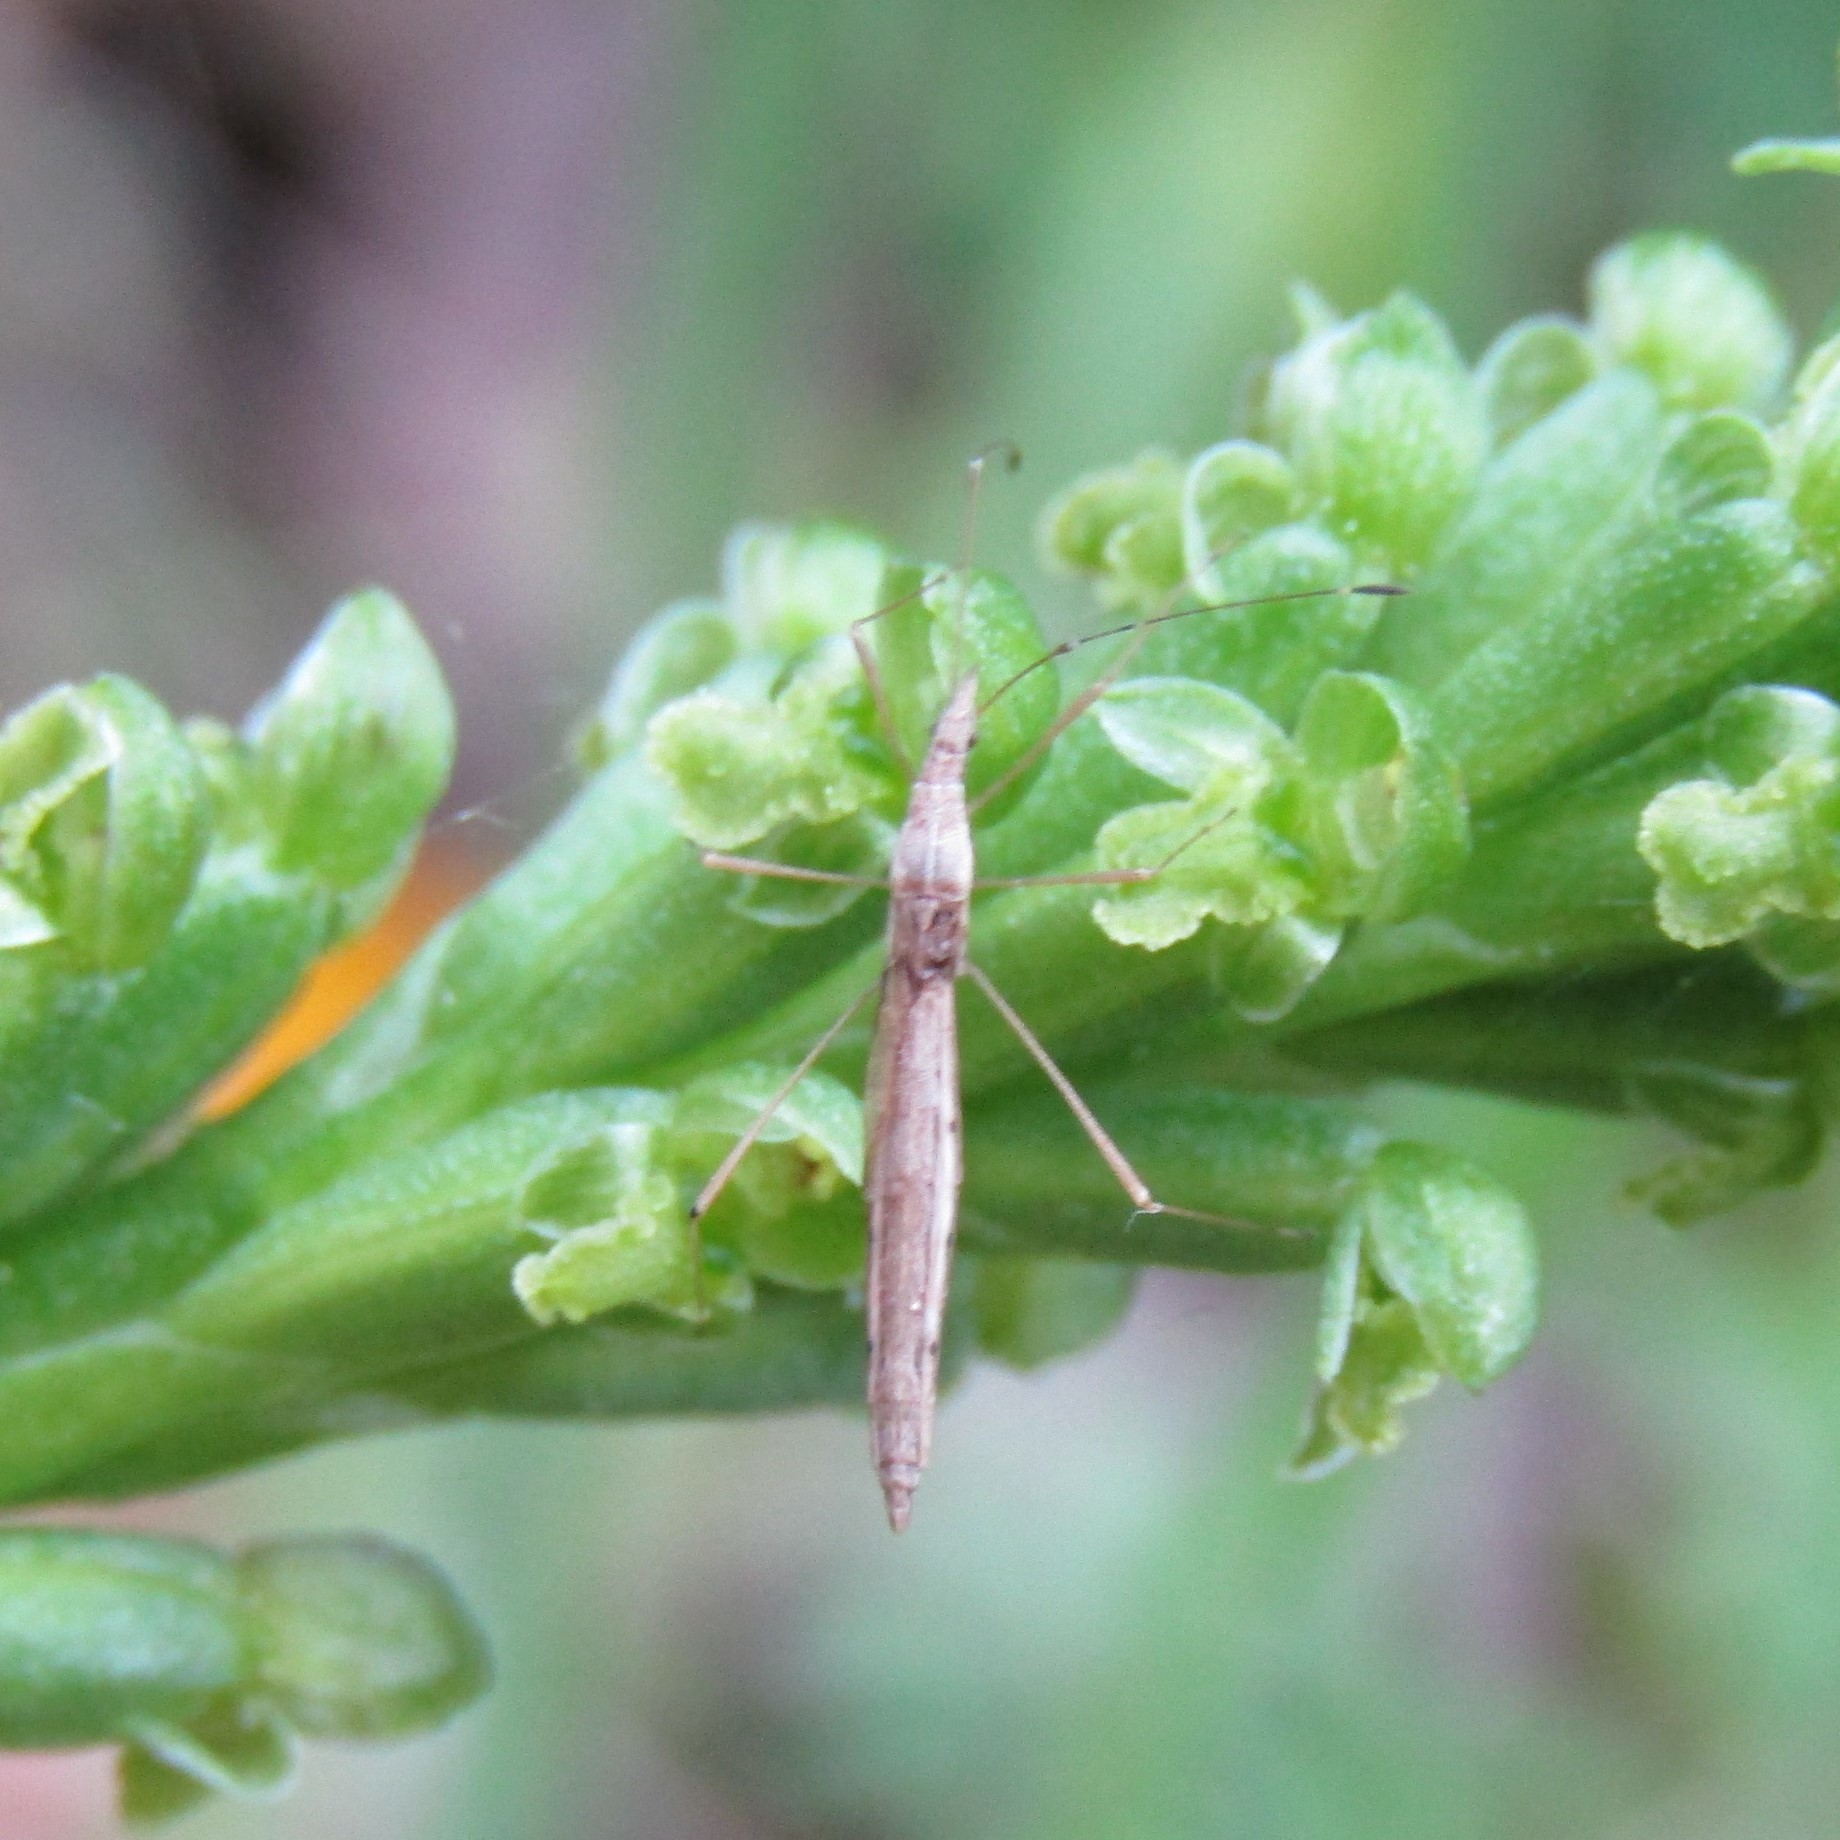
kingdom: Animalia
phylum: Arthropoda
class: Insecta
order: Hemiptera
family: Berytidae
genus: Bezu
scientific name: Bezu wakefieldi
